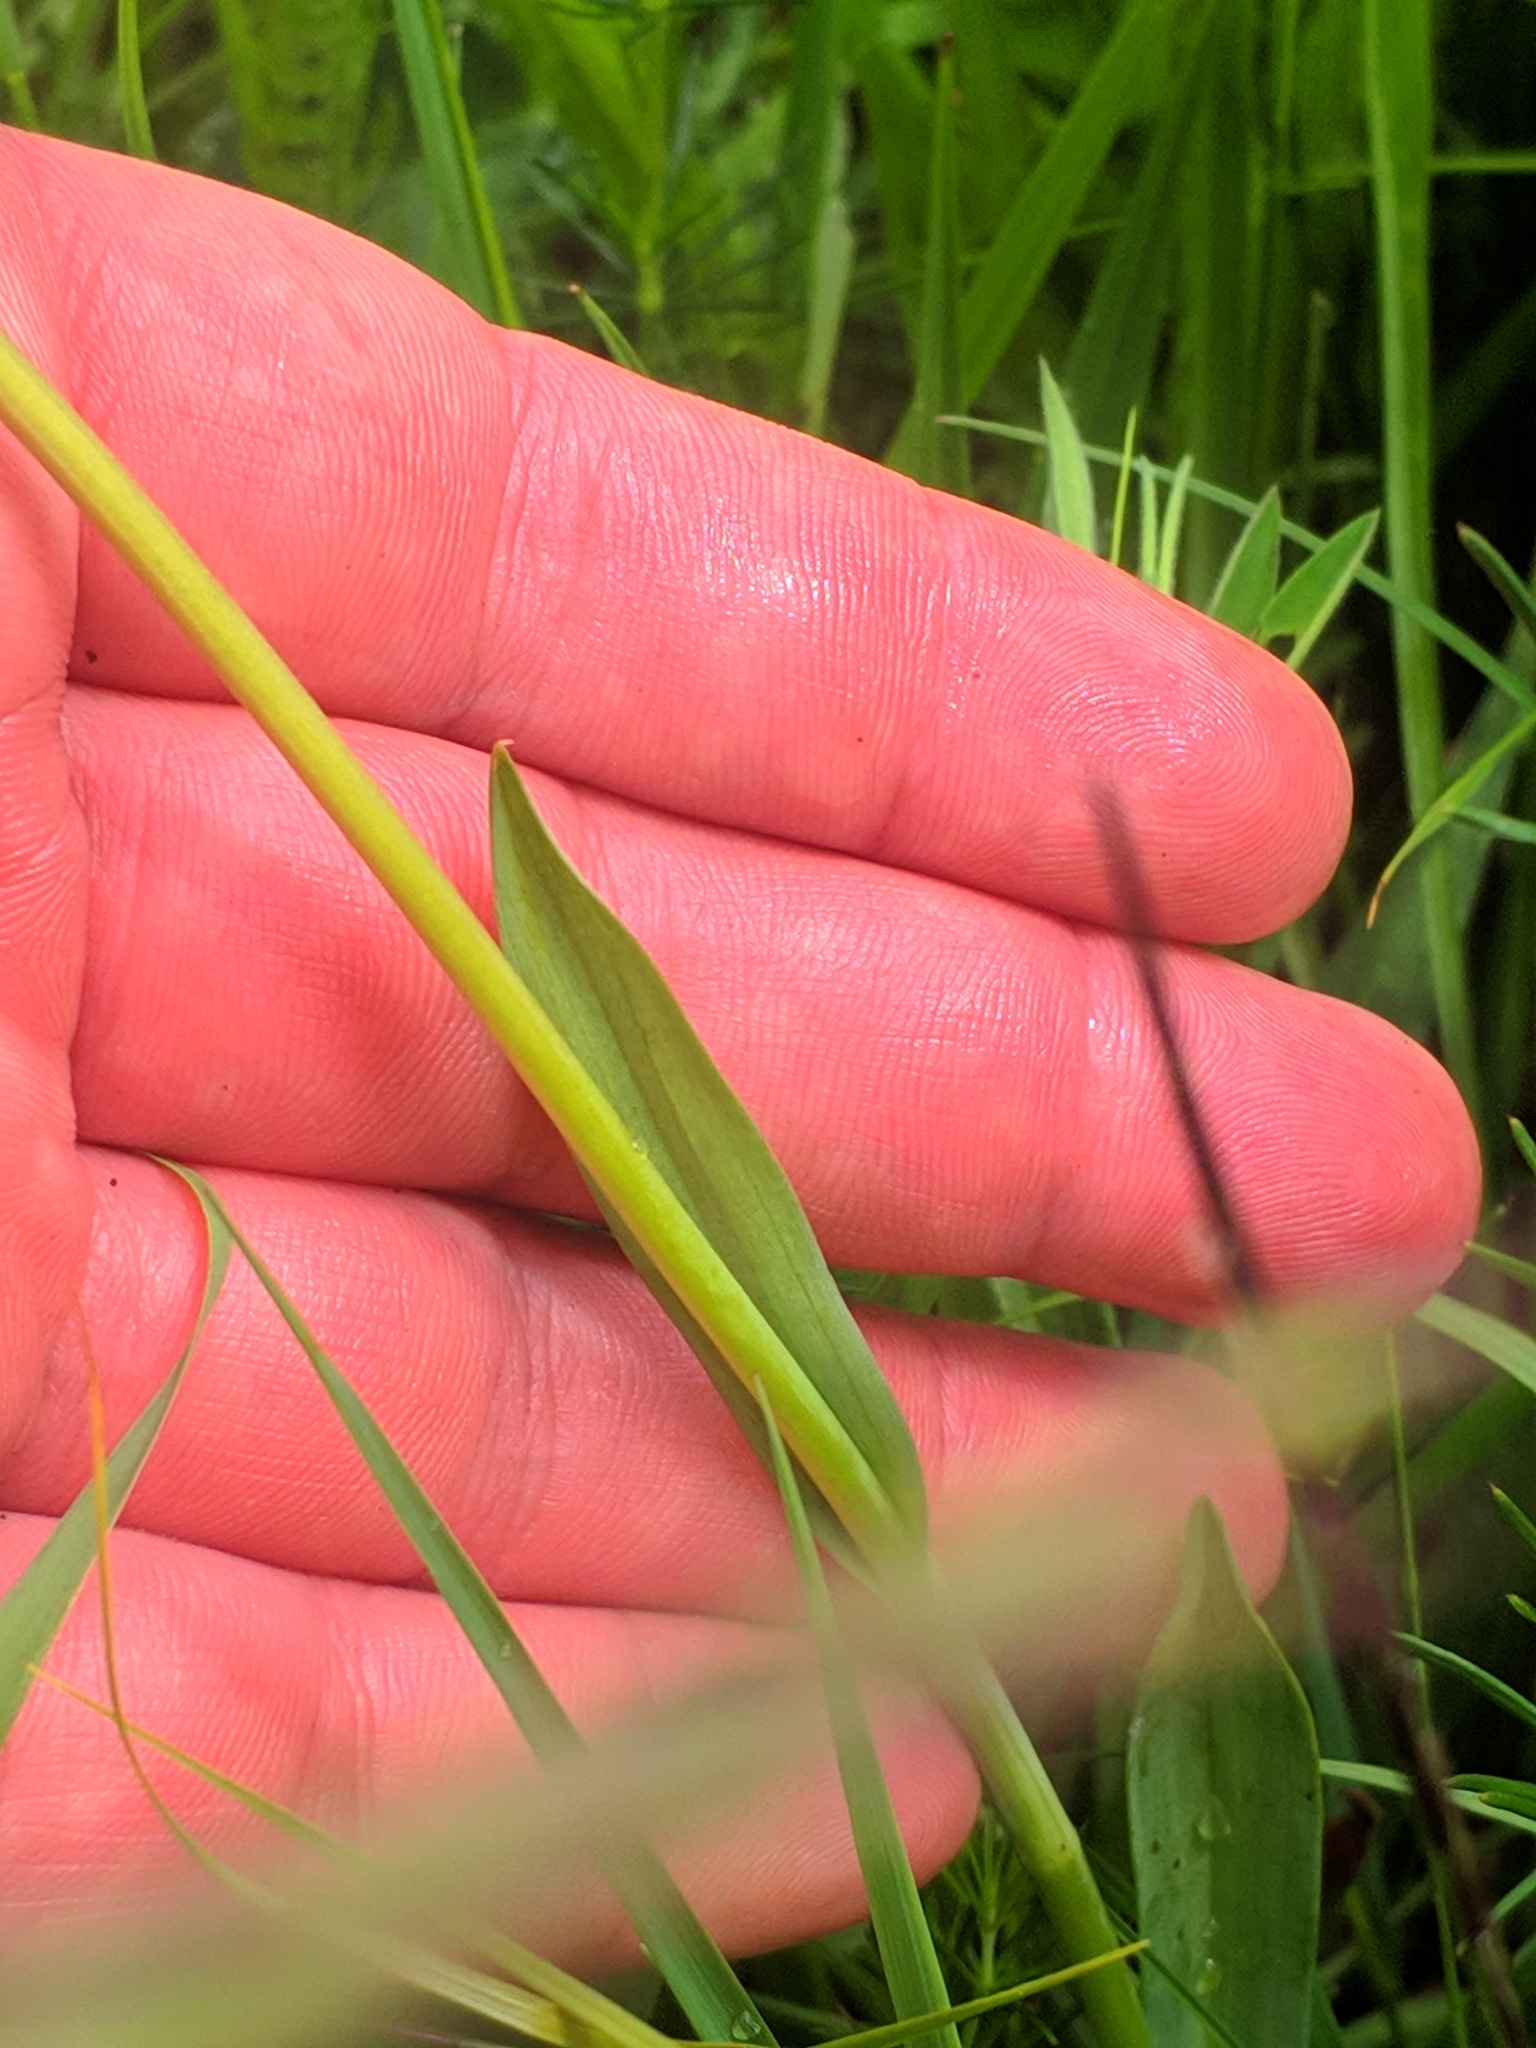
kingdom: Plantae
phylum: Tracheophyta
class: Liliopsida
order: Asparagales
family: Orchidaceae
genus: Traunsteinera
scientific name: Traunsteinera globosa
